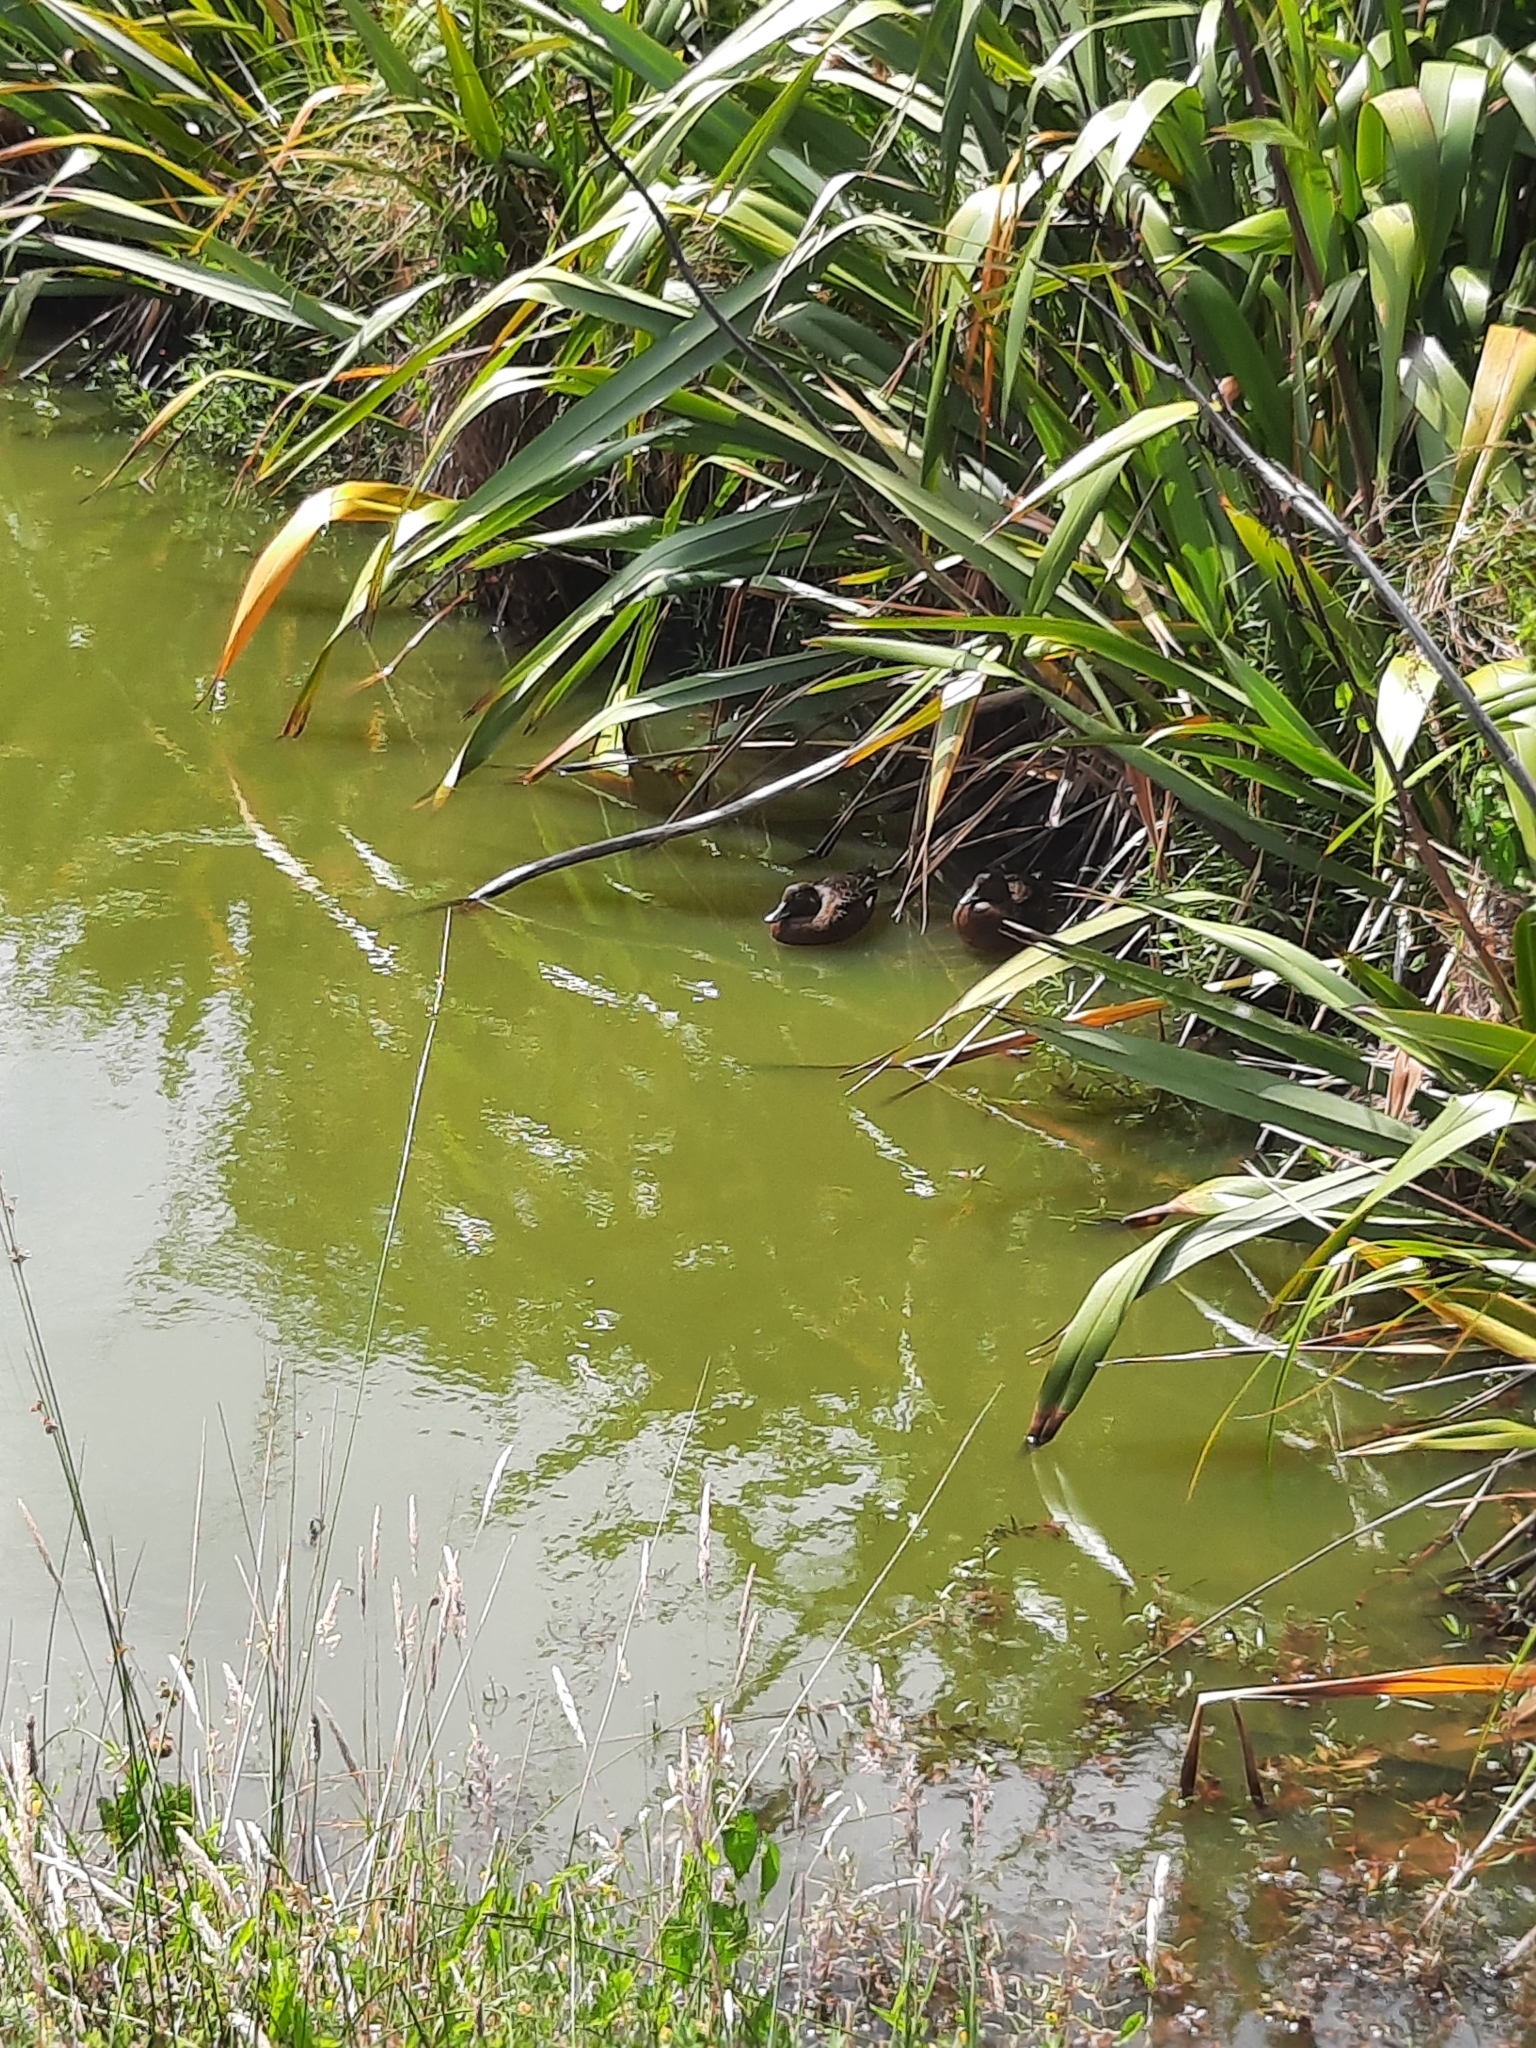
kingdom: Animalia
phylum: Chordata
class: Aves
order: Anseriformes
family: Anatidae
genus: Anas
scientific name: Anas chlorotis
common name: Brown teal
